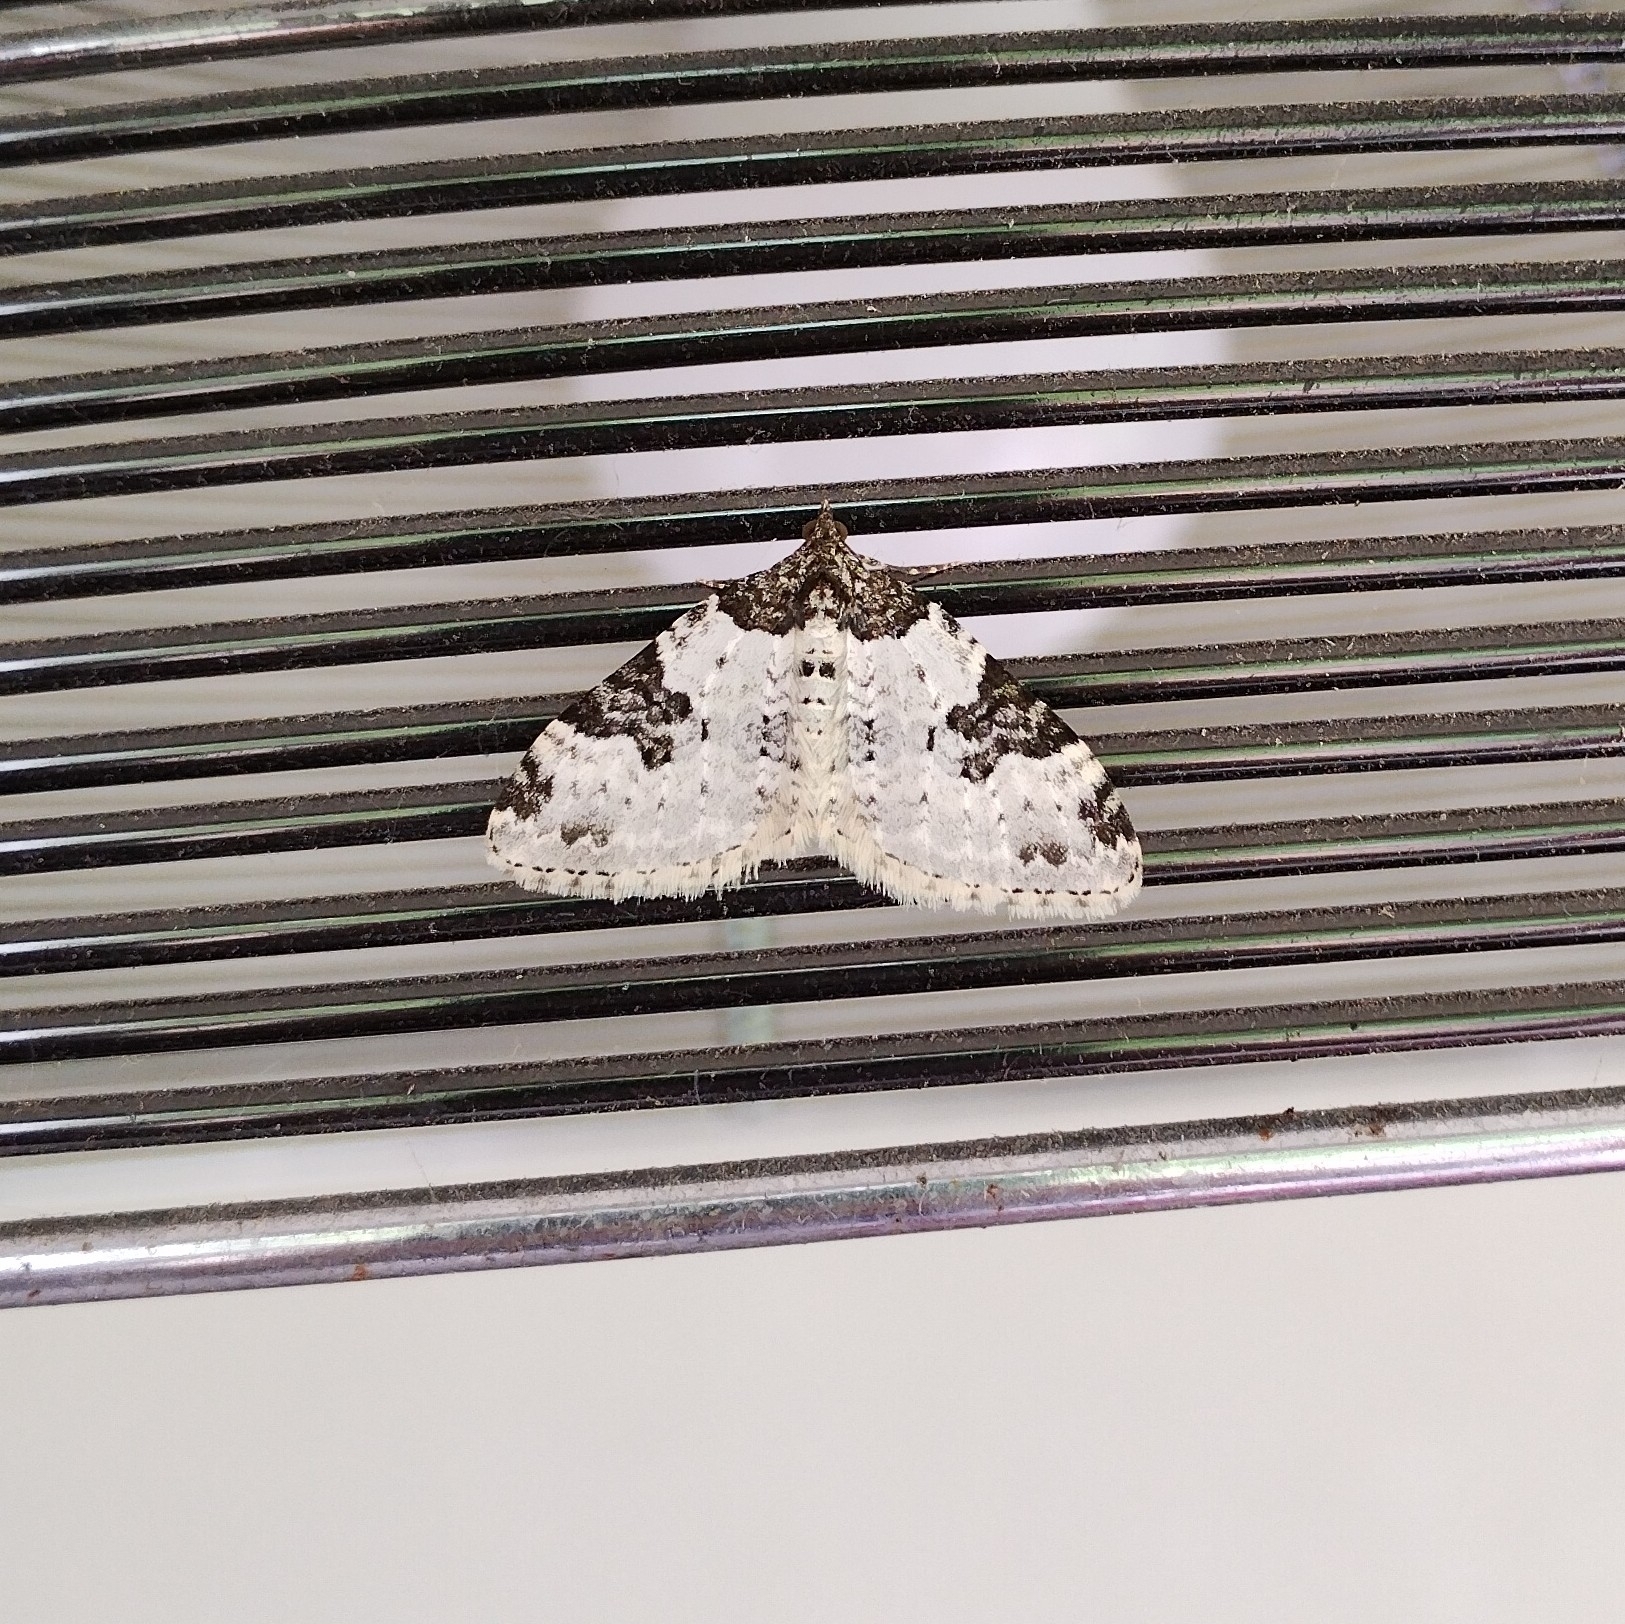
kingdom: Animalia
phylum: Arthropoda
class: Insecta
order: Lepidoptera
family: Geometridae
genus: Xanthorhoe
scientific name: Xanthorhoe fluctuata
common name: Garden carpet
